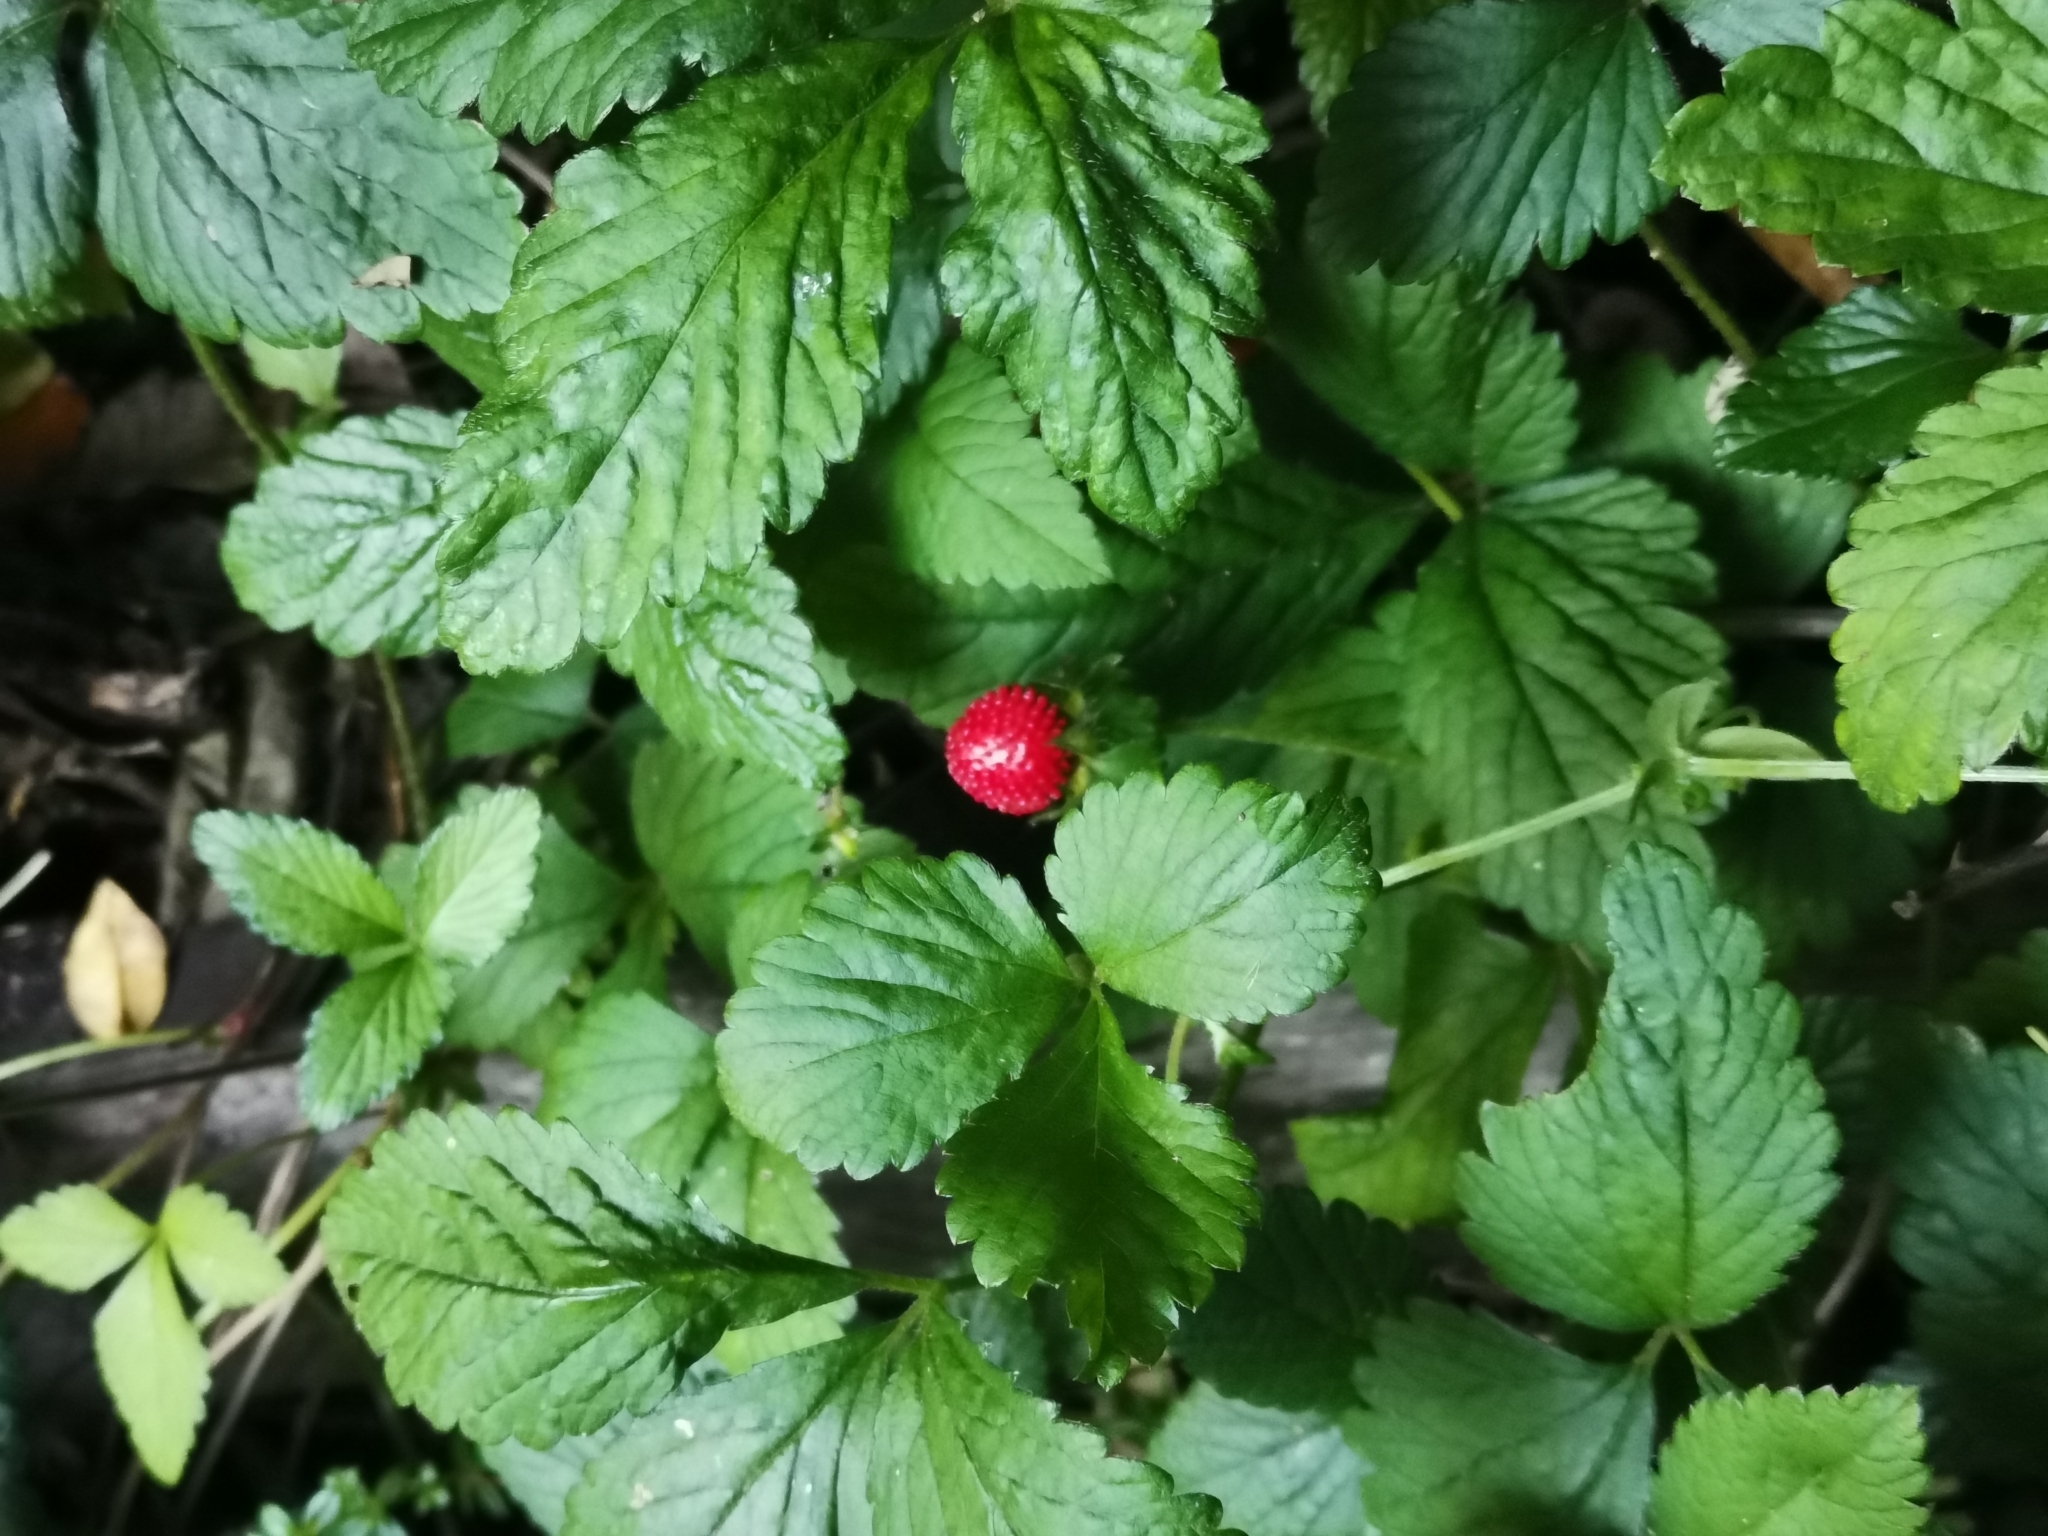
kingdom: Plantae
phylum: Tracheophyta
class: Magnoliopsida
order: Rosales
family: Rosaceae
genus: Potentilla
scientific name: Potentilla indica
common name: Yellow-flowered strawberry
